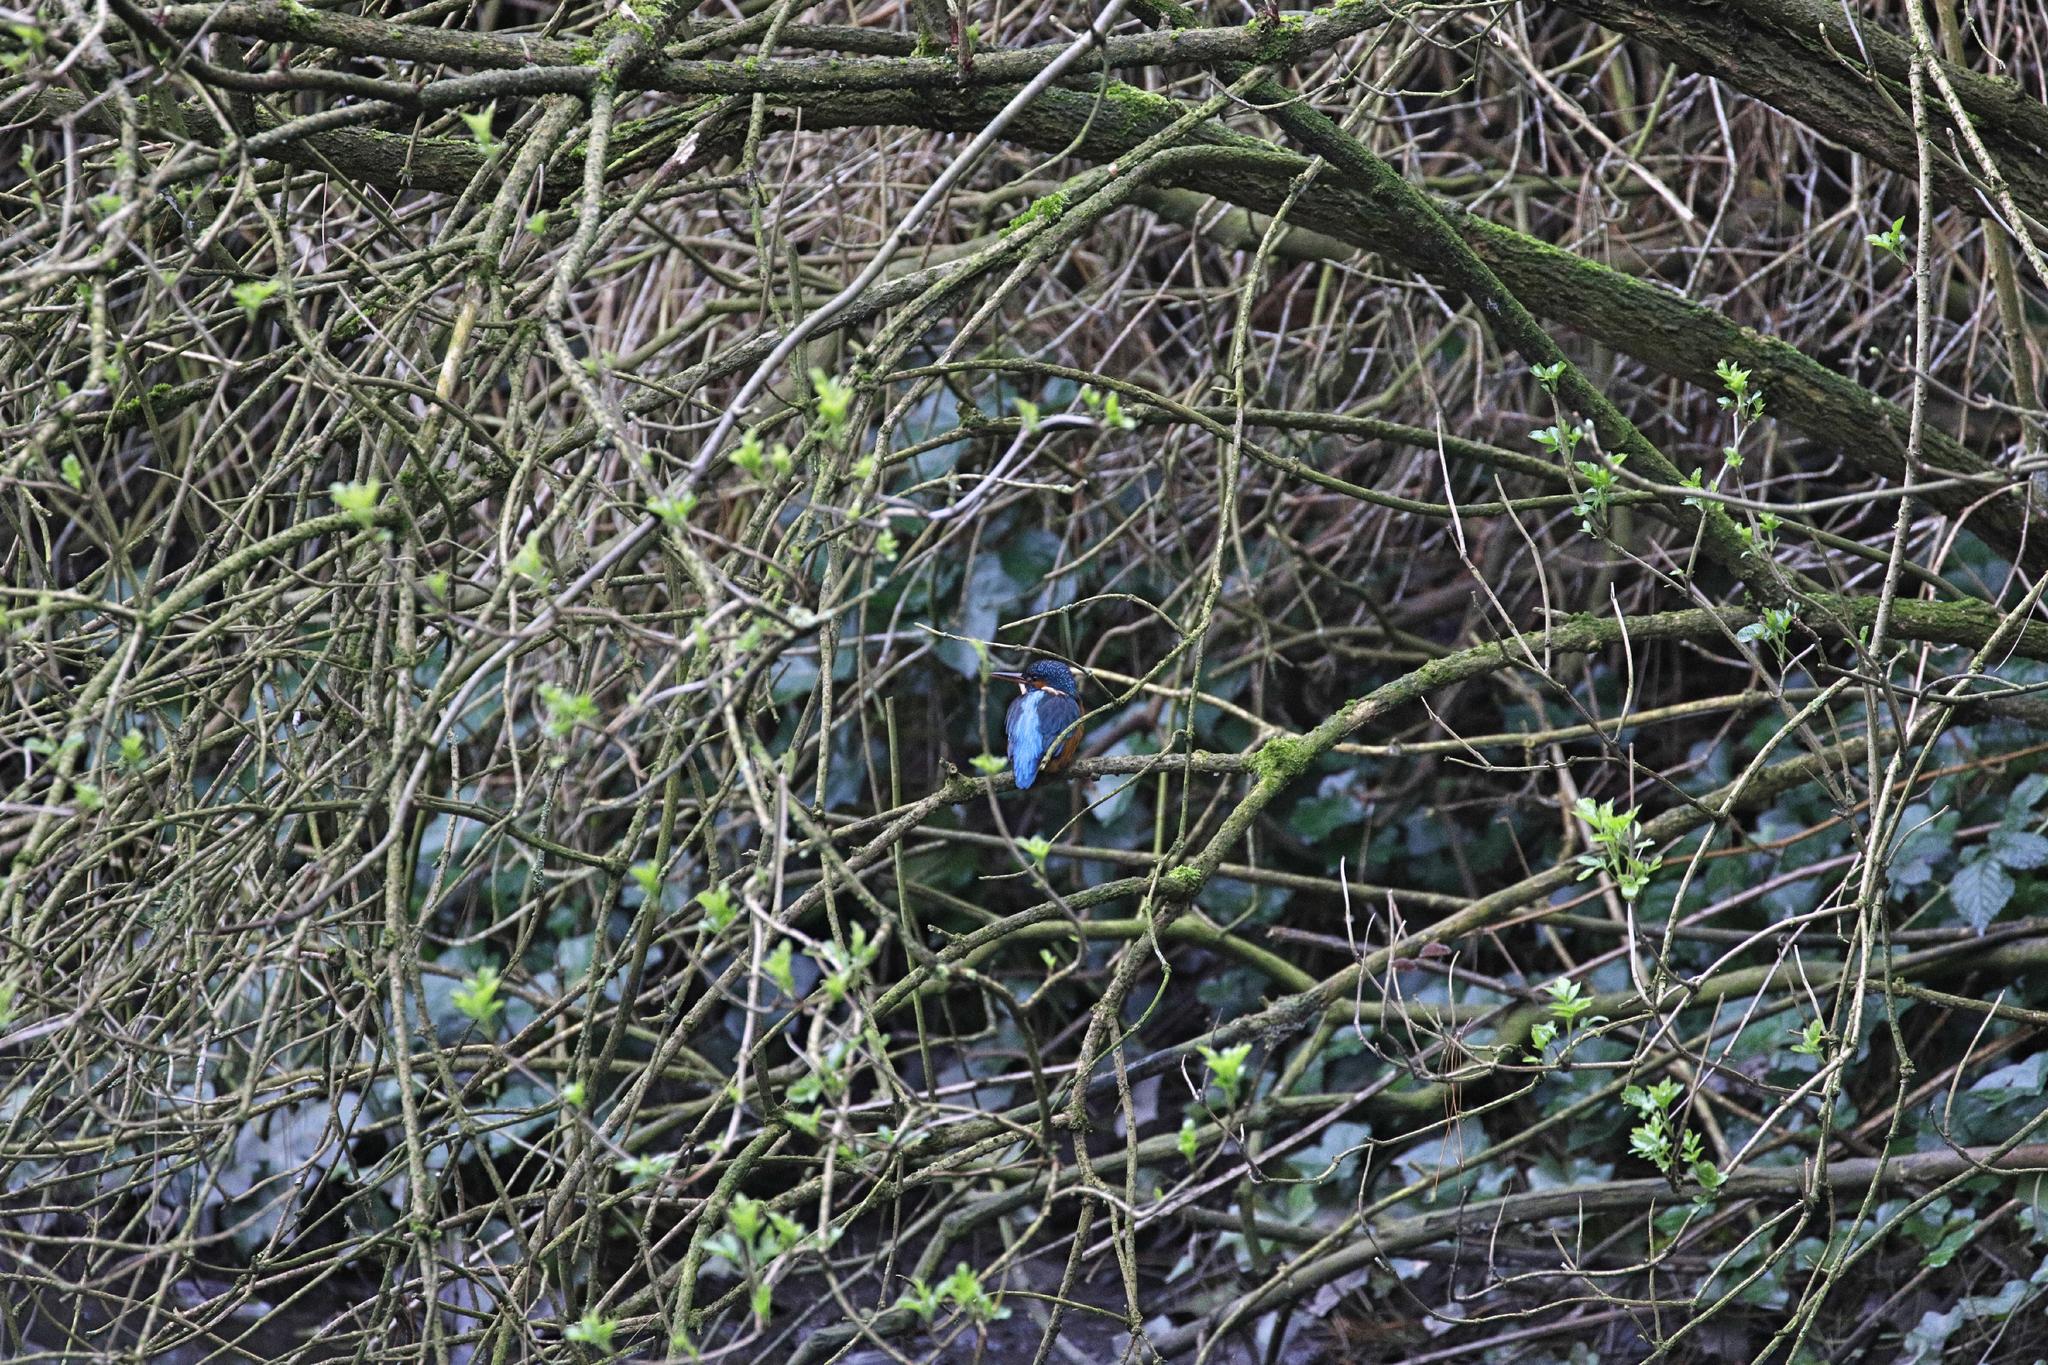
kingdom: Animalia
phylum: Chordata
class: Aves
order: Coraciiformes
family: Alcedinidae
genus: Alcedo
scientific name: Alcedo atthis
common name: Common kingfisher
